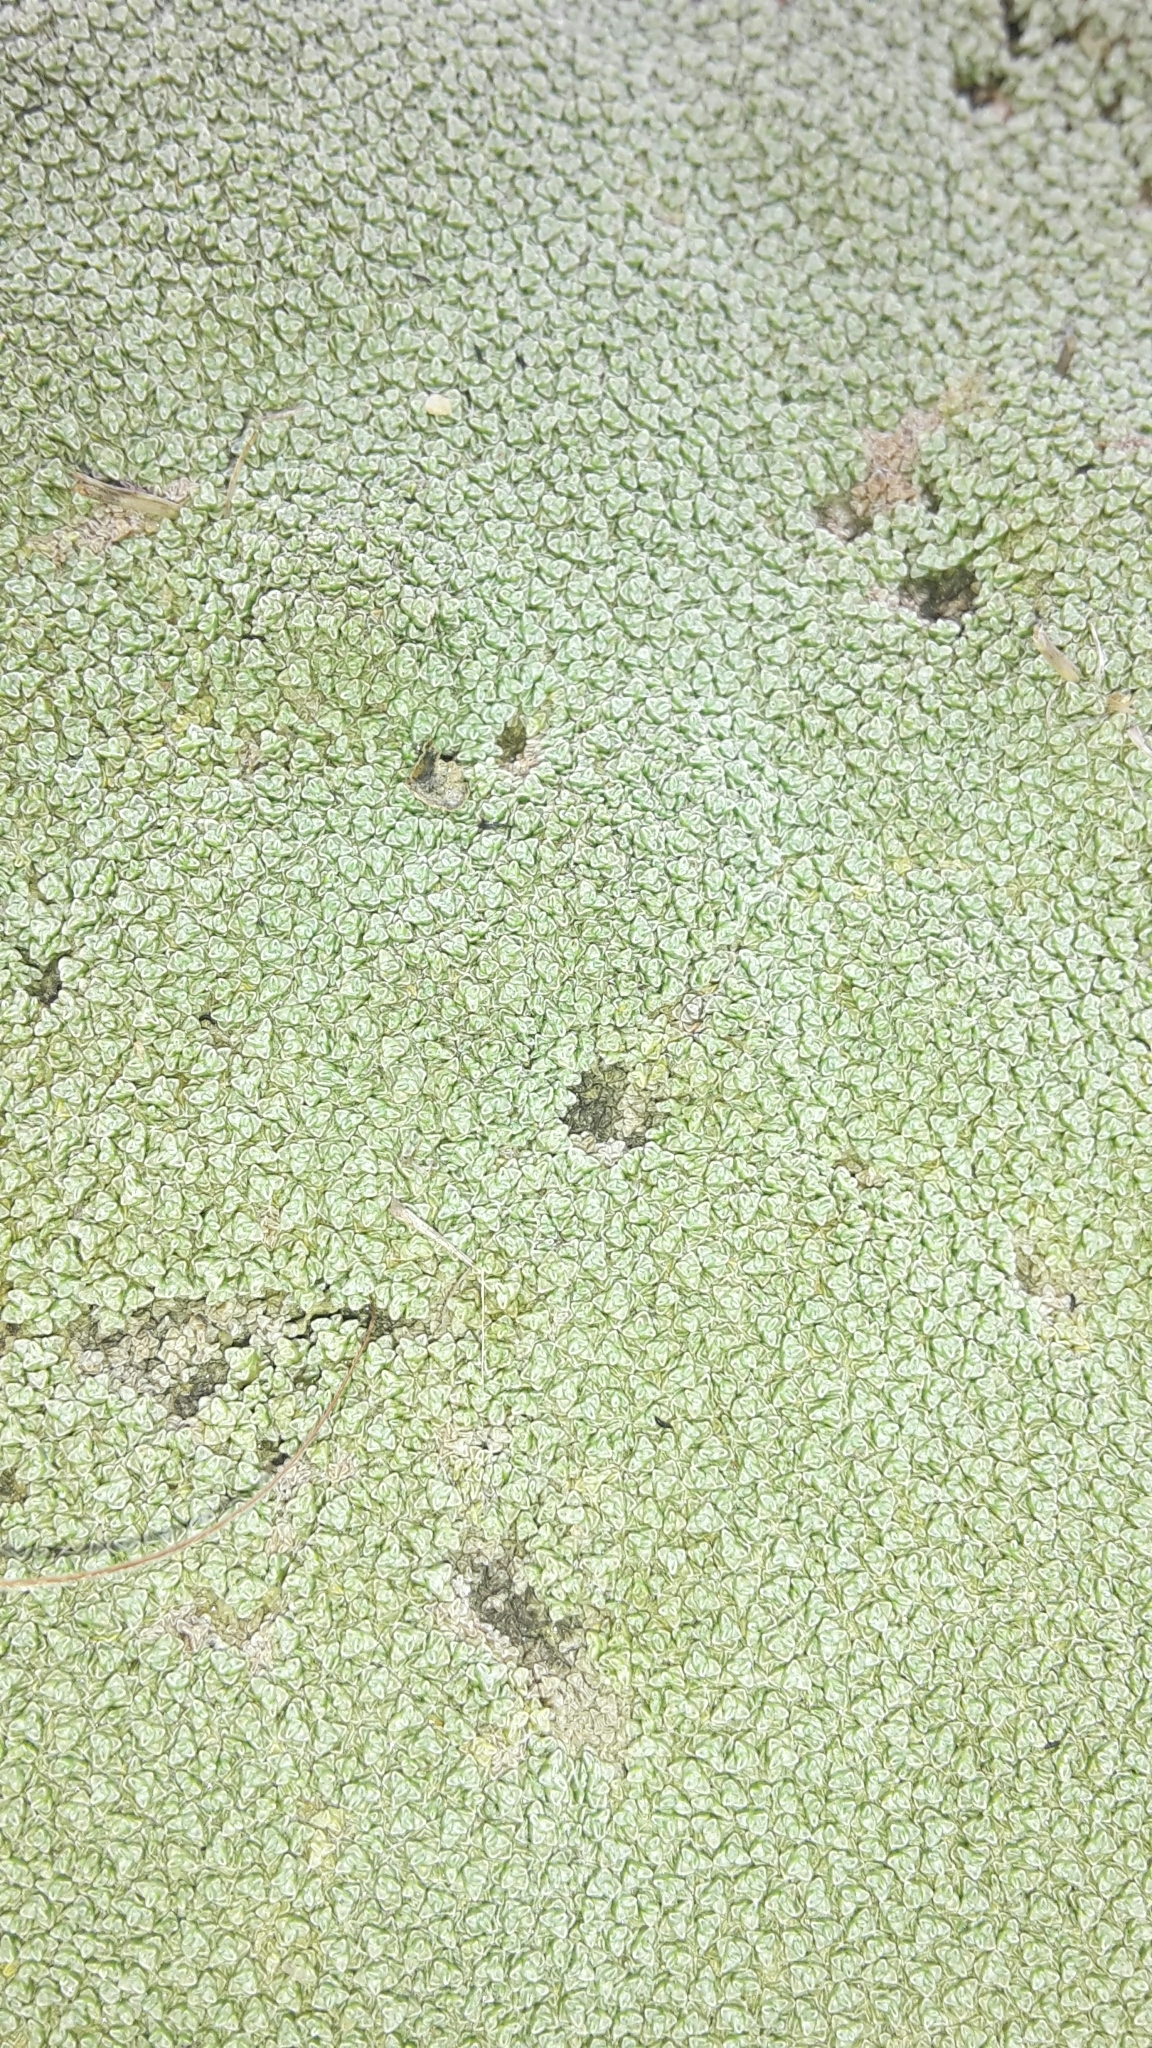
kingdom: Plantae
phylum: Tracheophyta
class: Magnoliopsida
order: Asterales
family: Asteraceae
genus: Raoulia
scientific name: Raoulia australis
